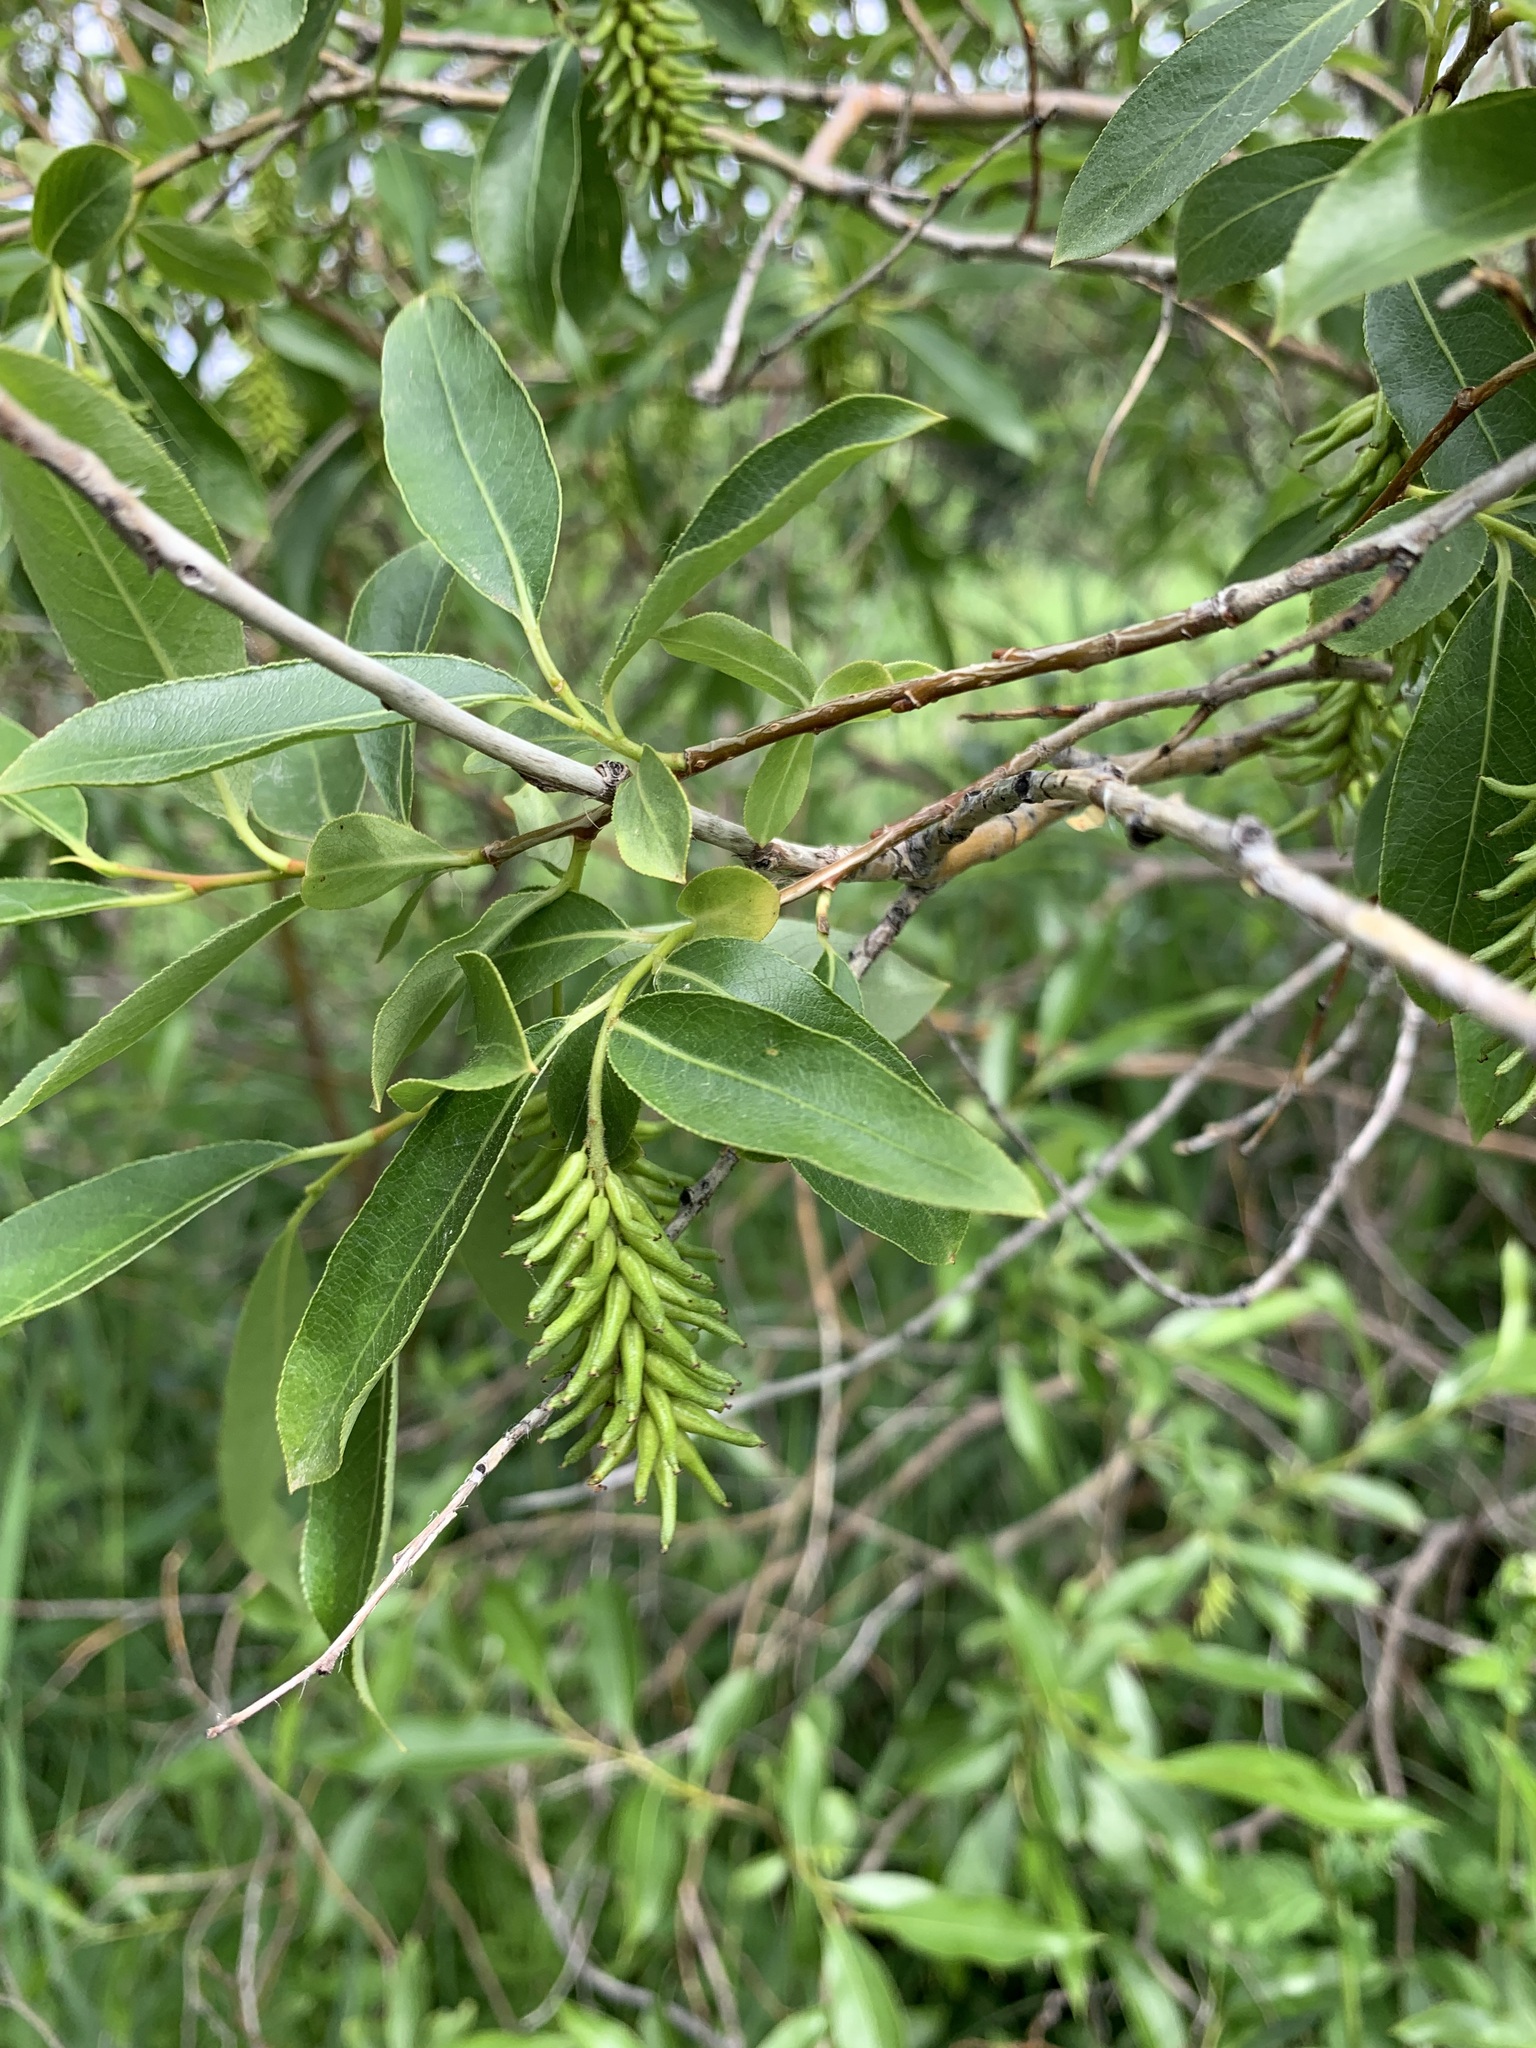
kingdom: Plantae
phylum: Tracheophyta
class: Magnoliopsida
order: Malpighiales
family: Salicaceae
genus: Salix
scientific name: Salix pentandra
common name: Bay willow
